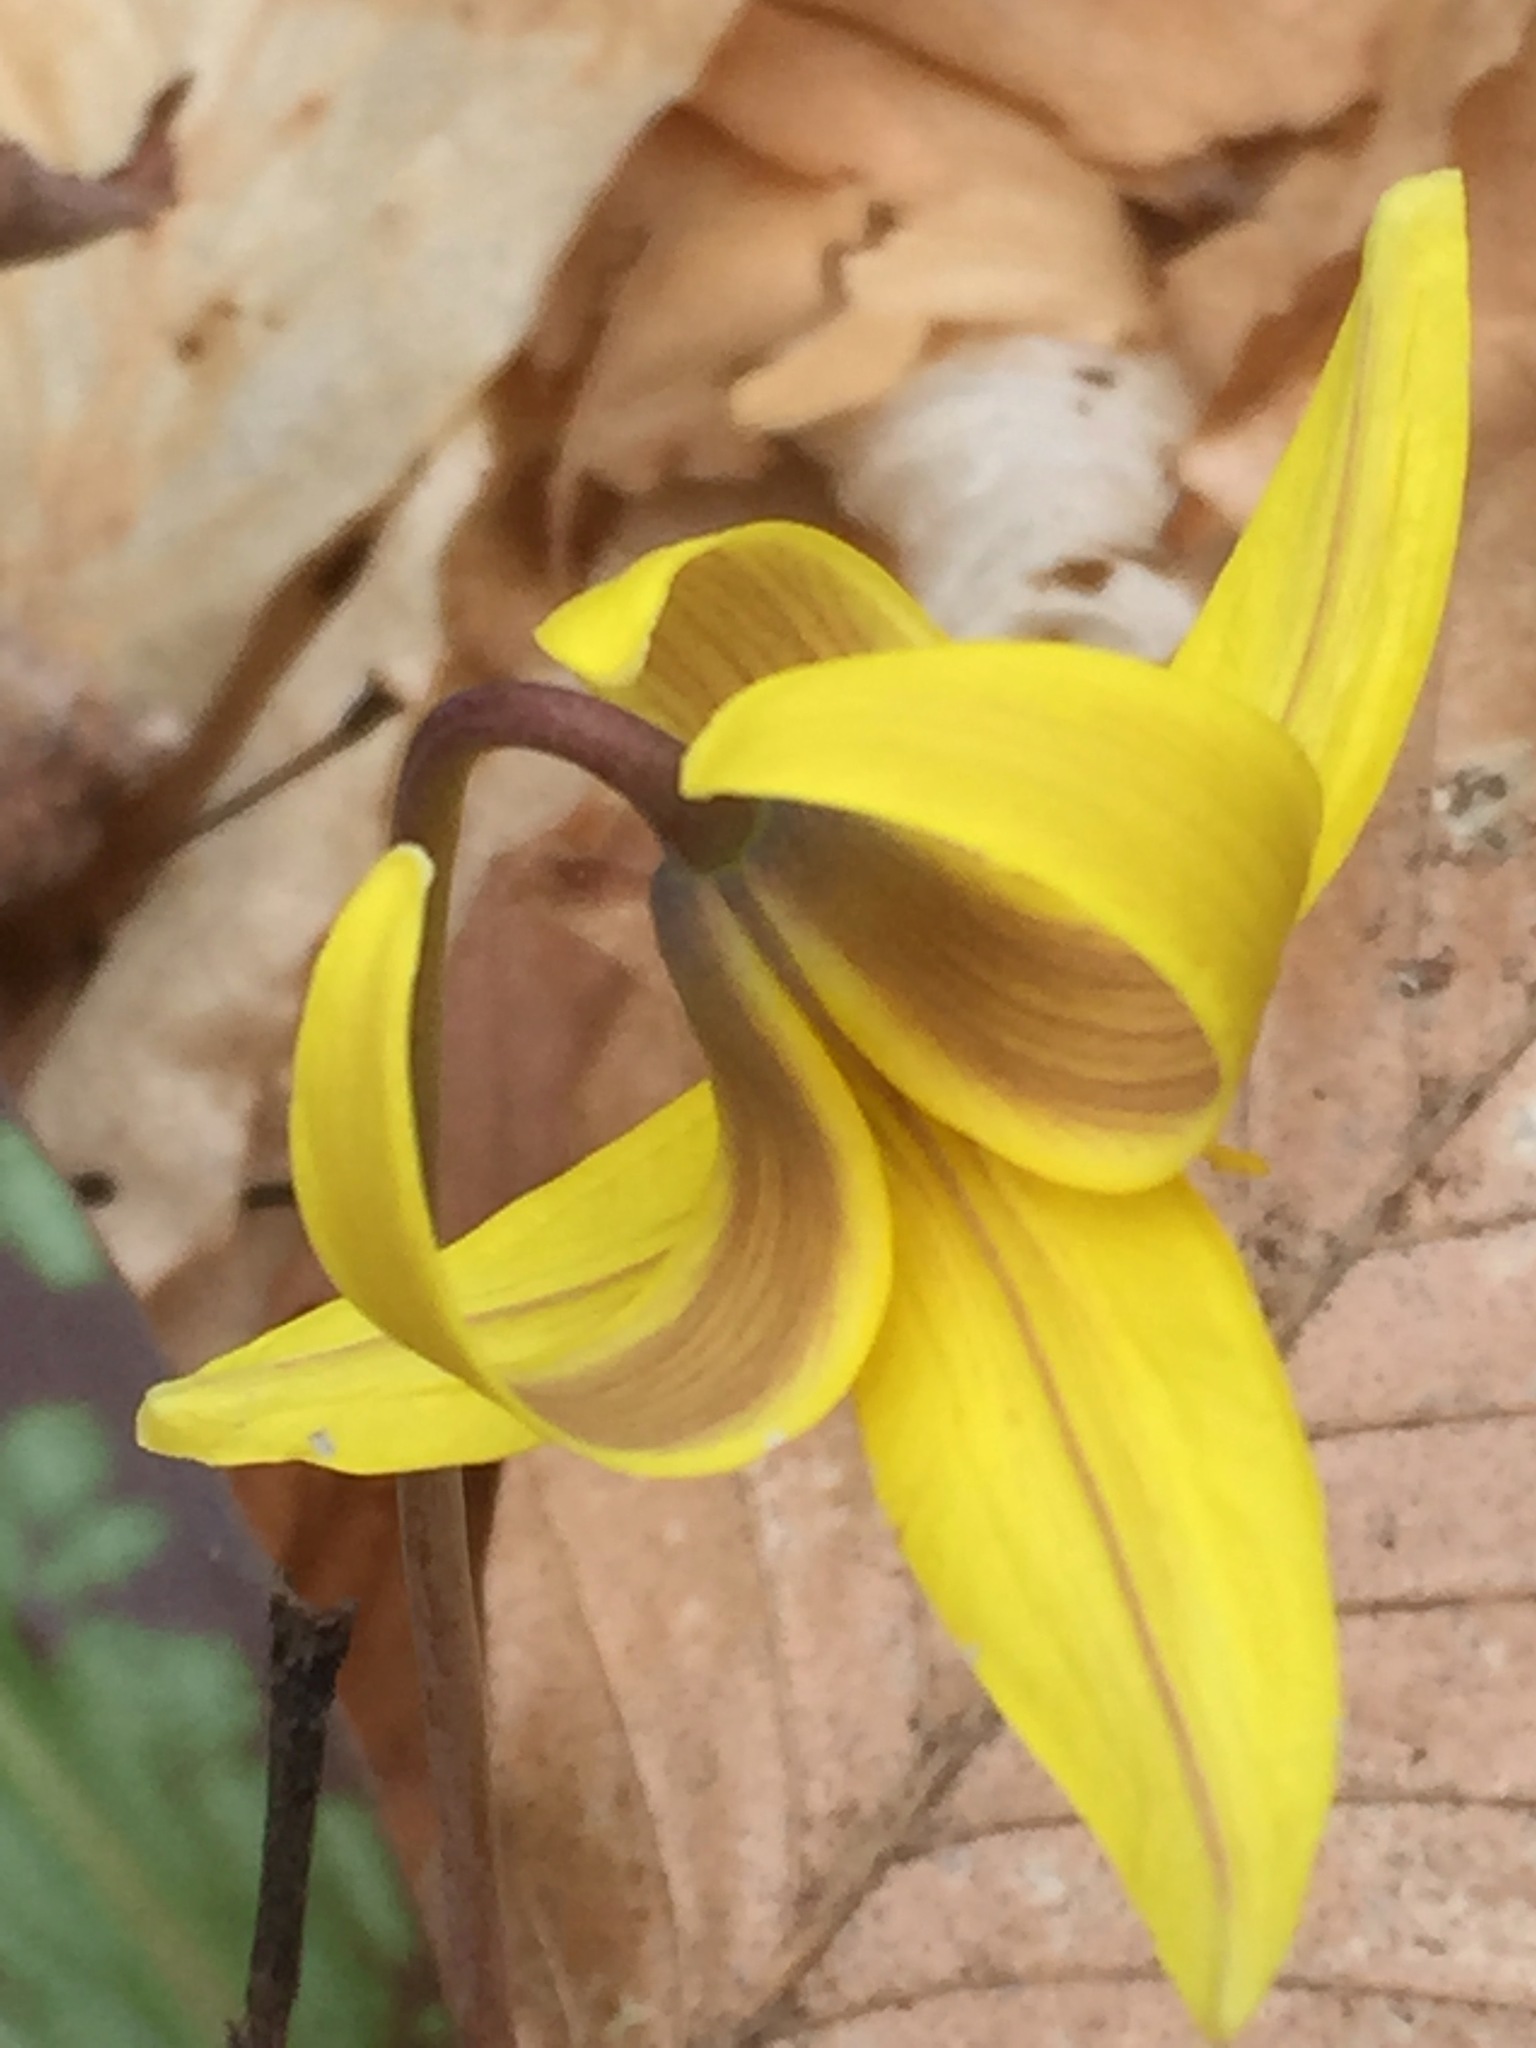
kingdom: Plantae
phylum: Tracheophyta
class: Liliopsida
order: Liliales
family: Liliaceae
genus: Erythronium
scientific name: Erythronium americanum
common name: Yellow adder's-tongue
